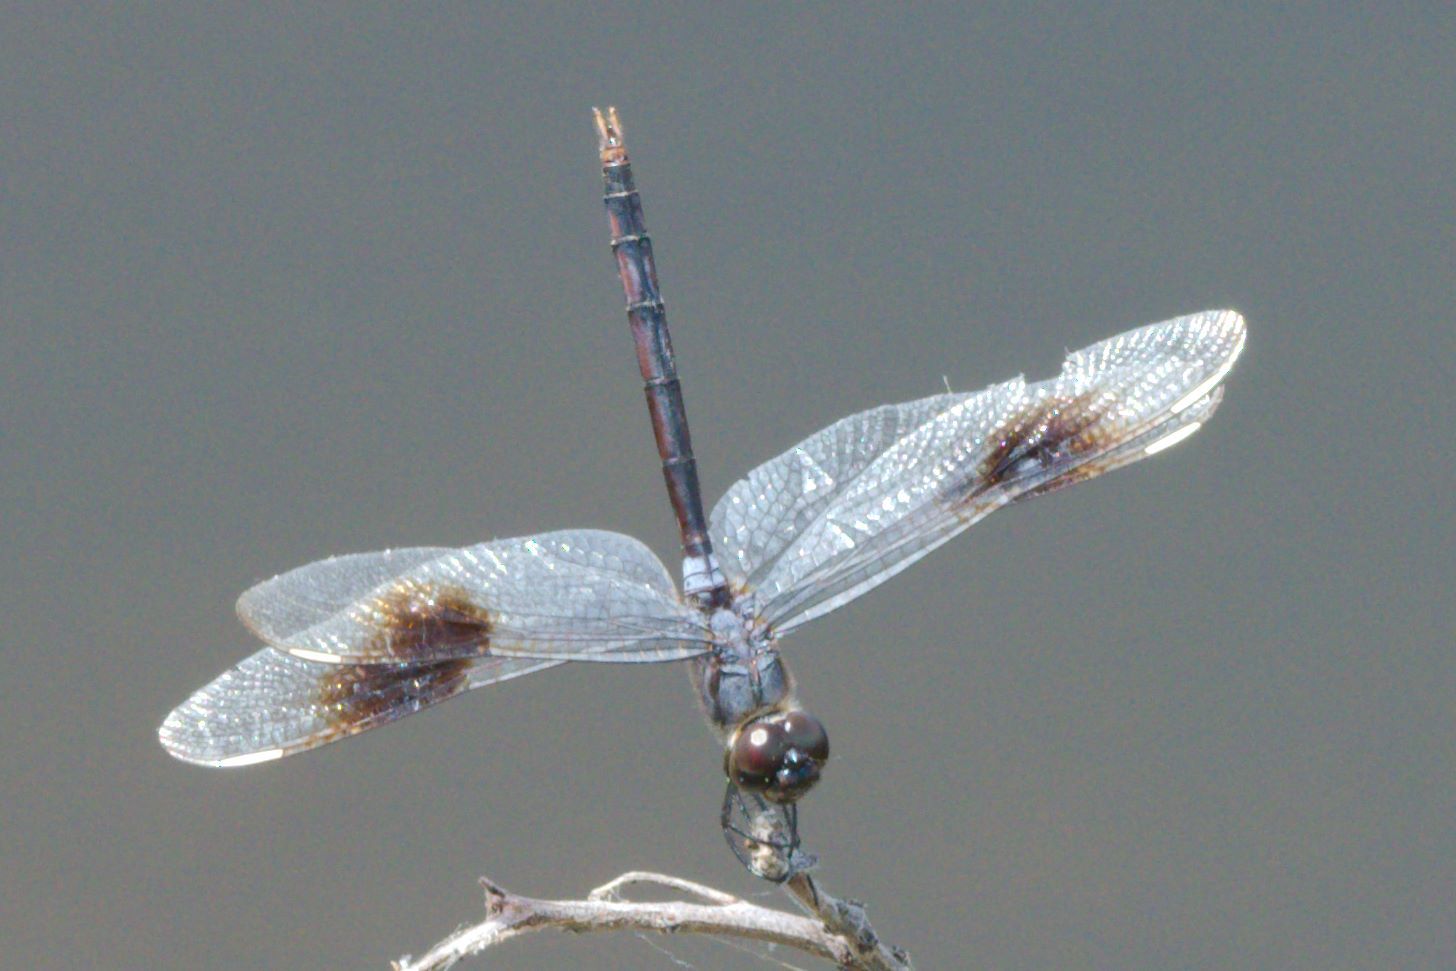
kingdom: Animalia
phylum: Arthropoda
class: Insecta
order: Odonata
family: Libellulidae
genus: Brachymesia
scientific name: Brachymesia gravida
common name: Four-spotted pennant
